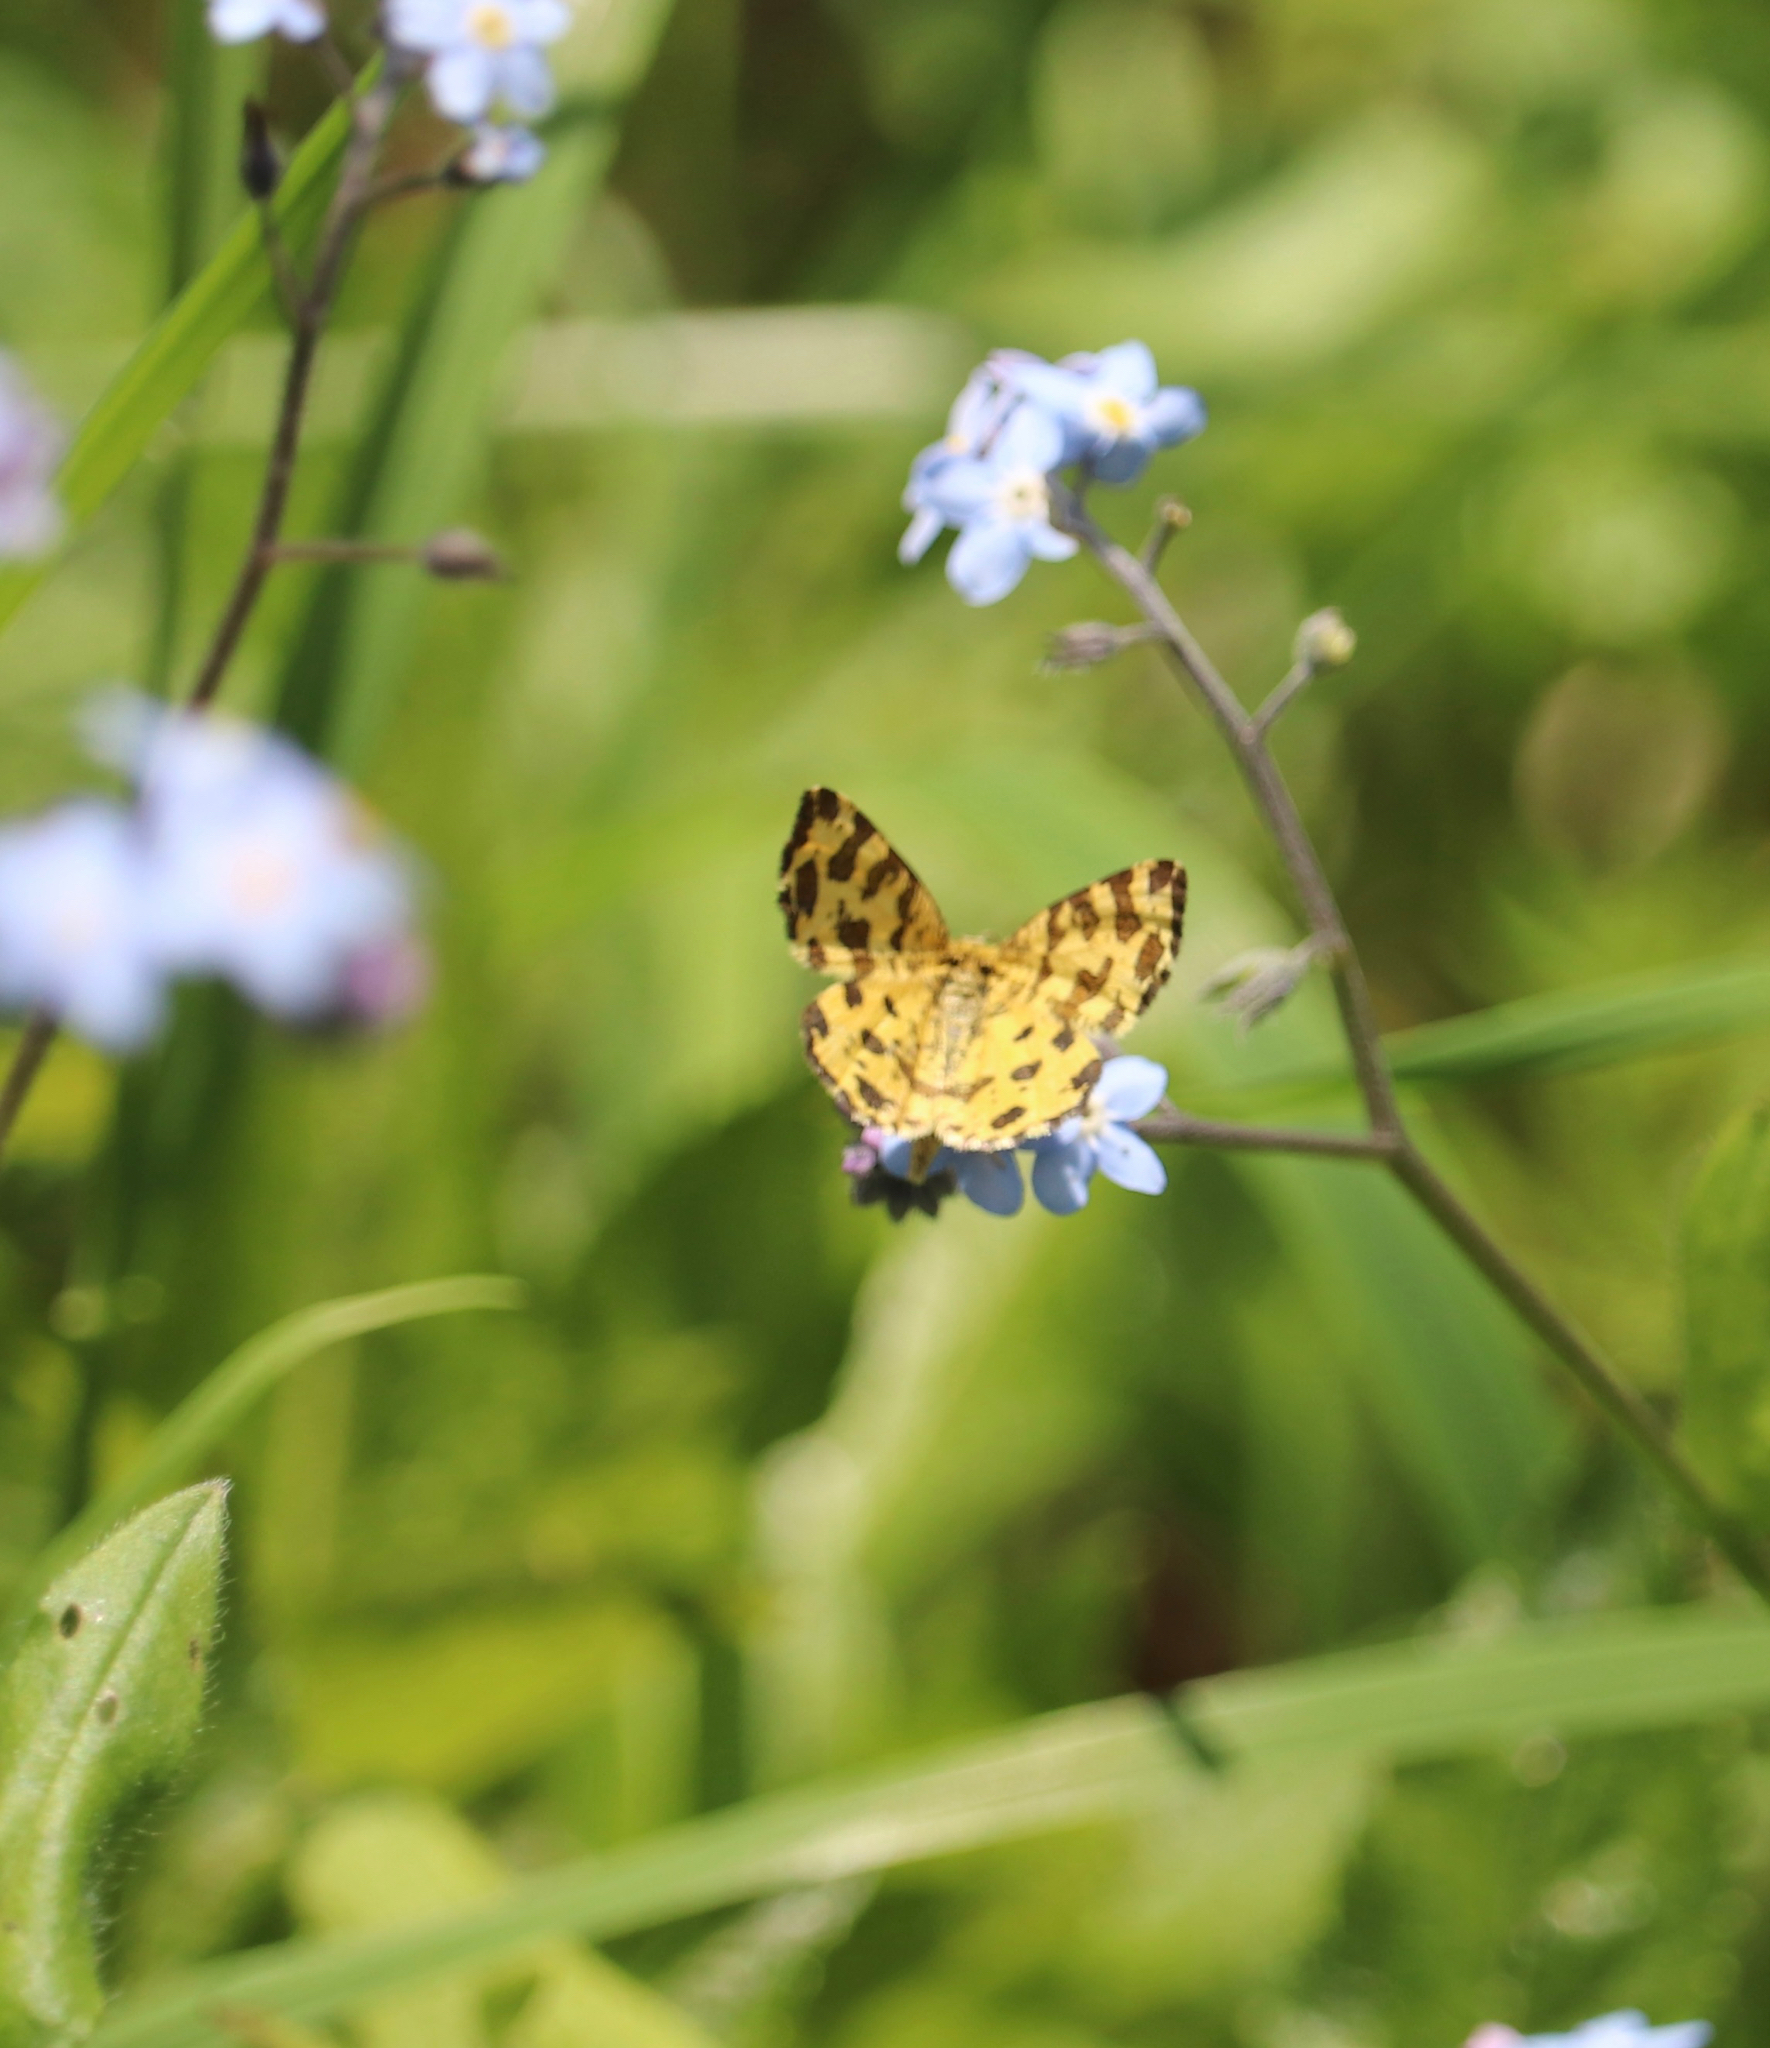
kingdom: Animalia
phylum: Arthropoda
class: Insecta
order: Lepidoptera
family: Geometridae
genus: Pseudopanthera
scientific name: Pseudopanthera macularia
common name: Speckled yellow
